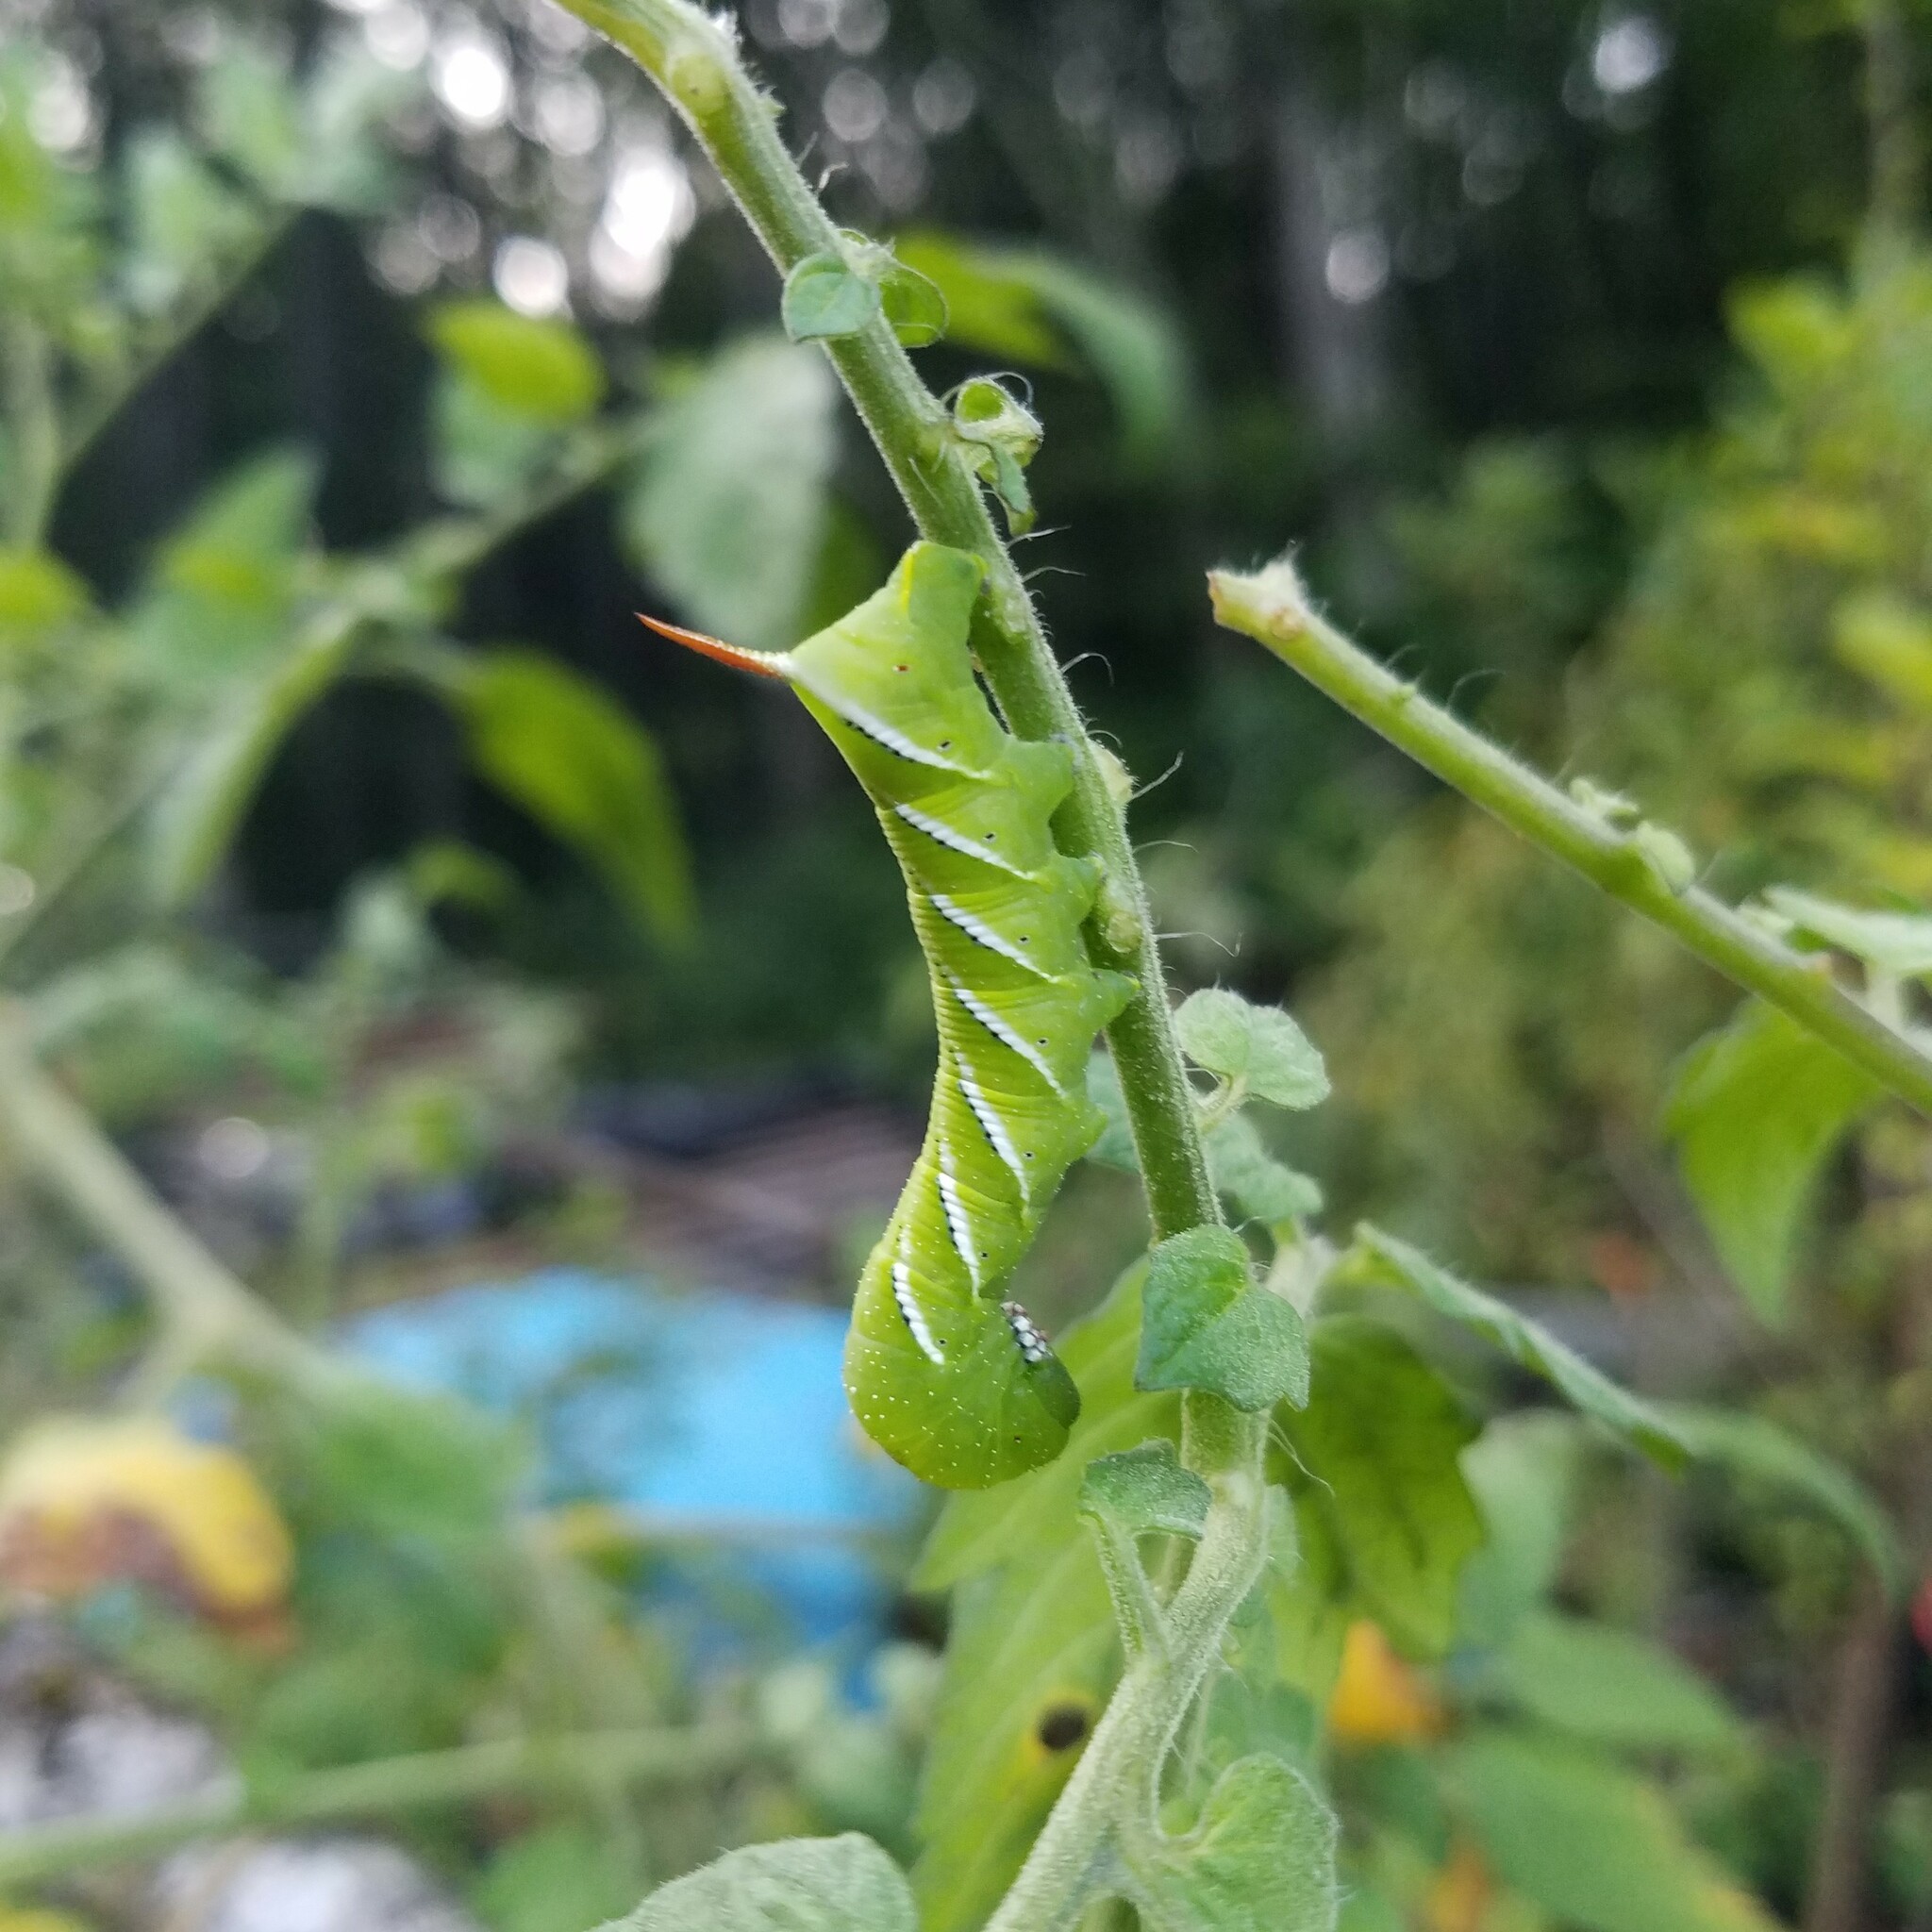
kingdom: Animalia
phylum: Arthropoda
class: Insecta
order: Lepidoptera
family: Sphingidae
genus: Manduca
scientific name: Manduca sexta
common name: Carolina sphinx
